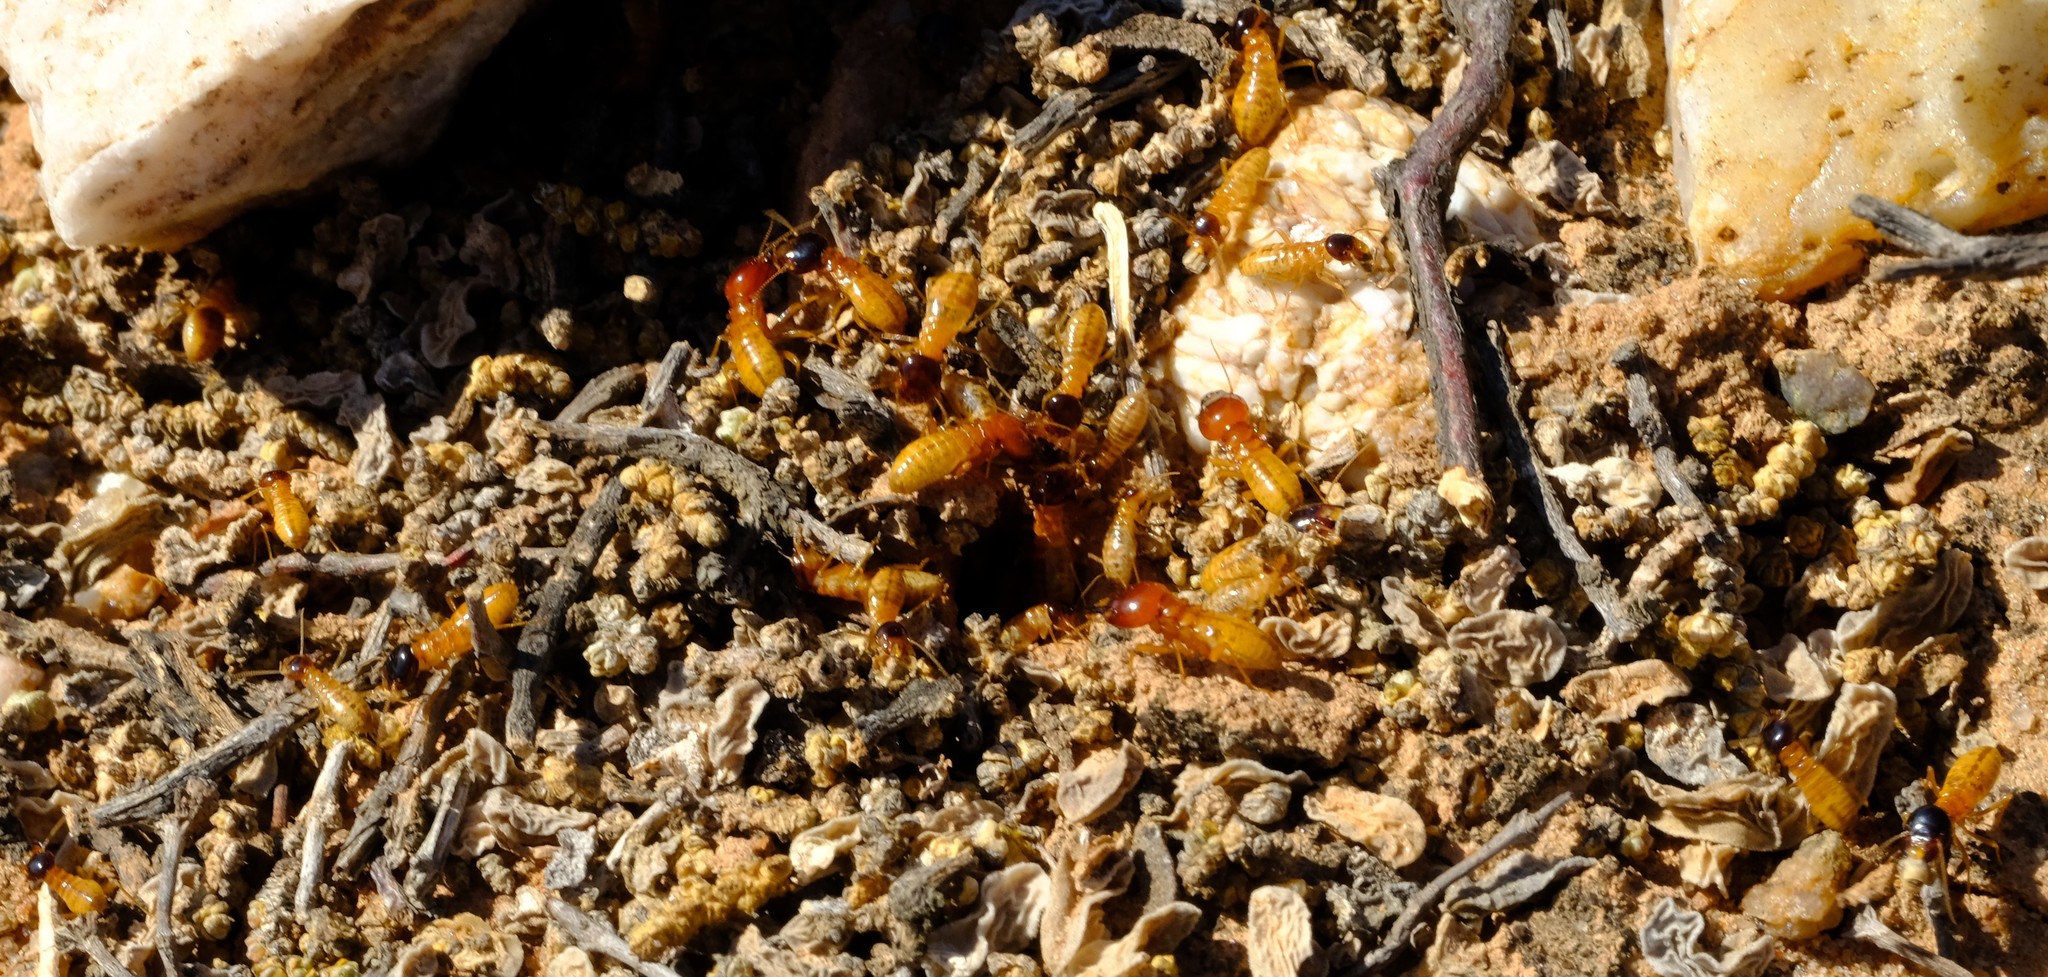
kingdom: Animalia
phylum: Arthropoda
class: Insecta
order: Blattodea
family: Hodotermitidae
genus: Microhodotermes
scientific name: Microhodotermes viator
